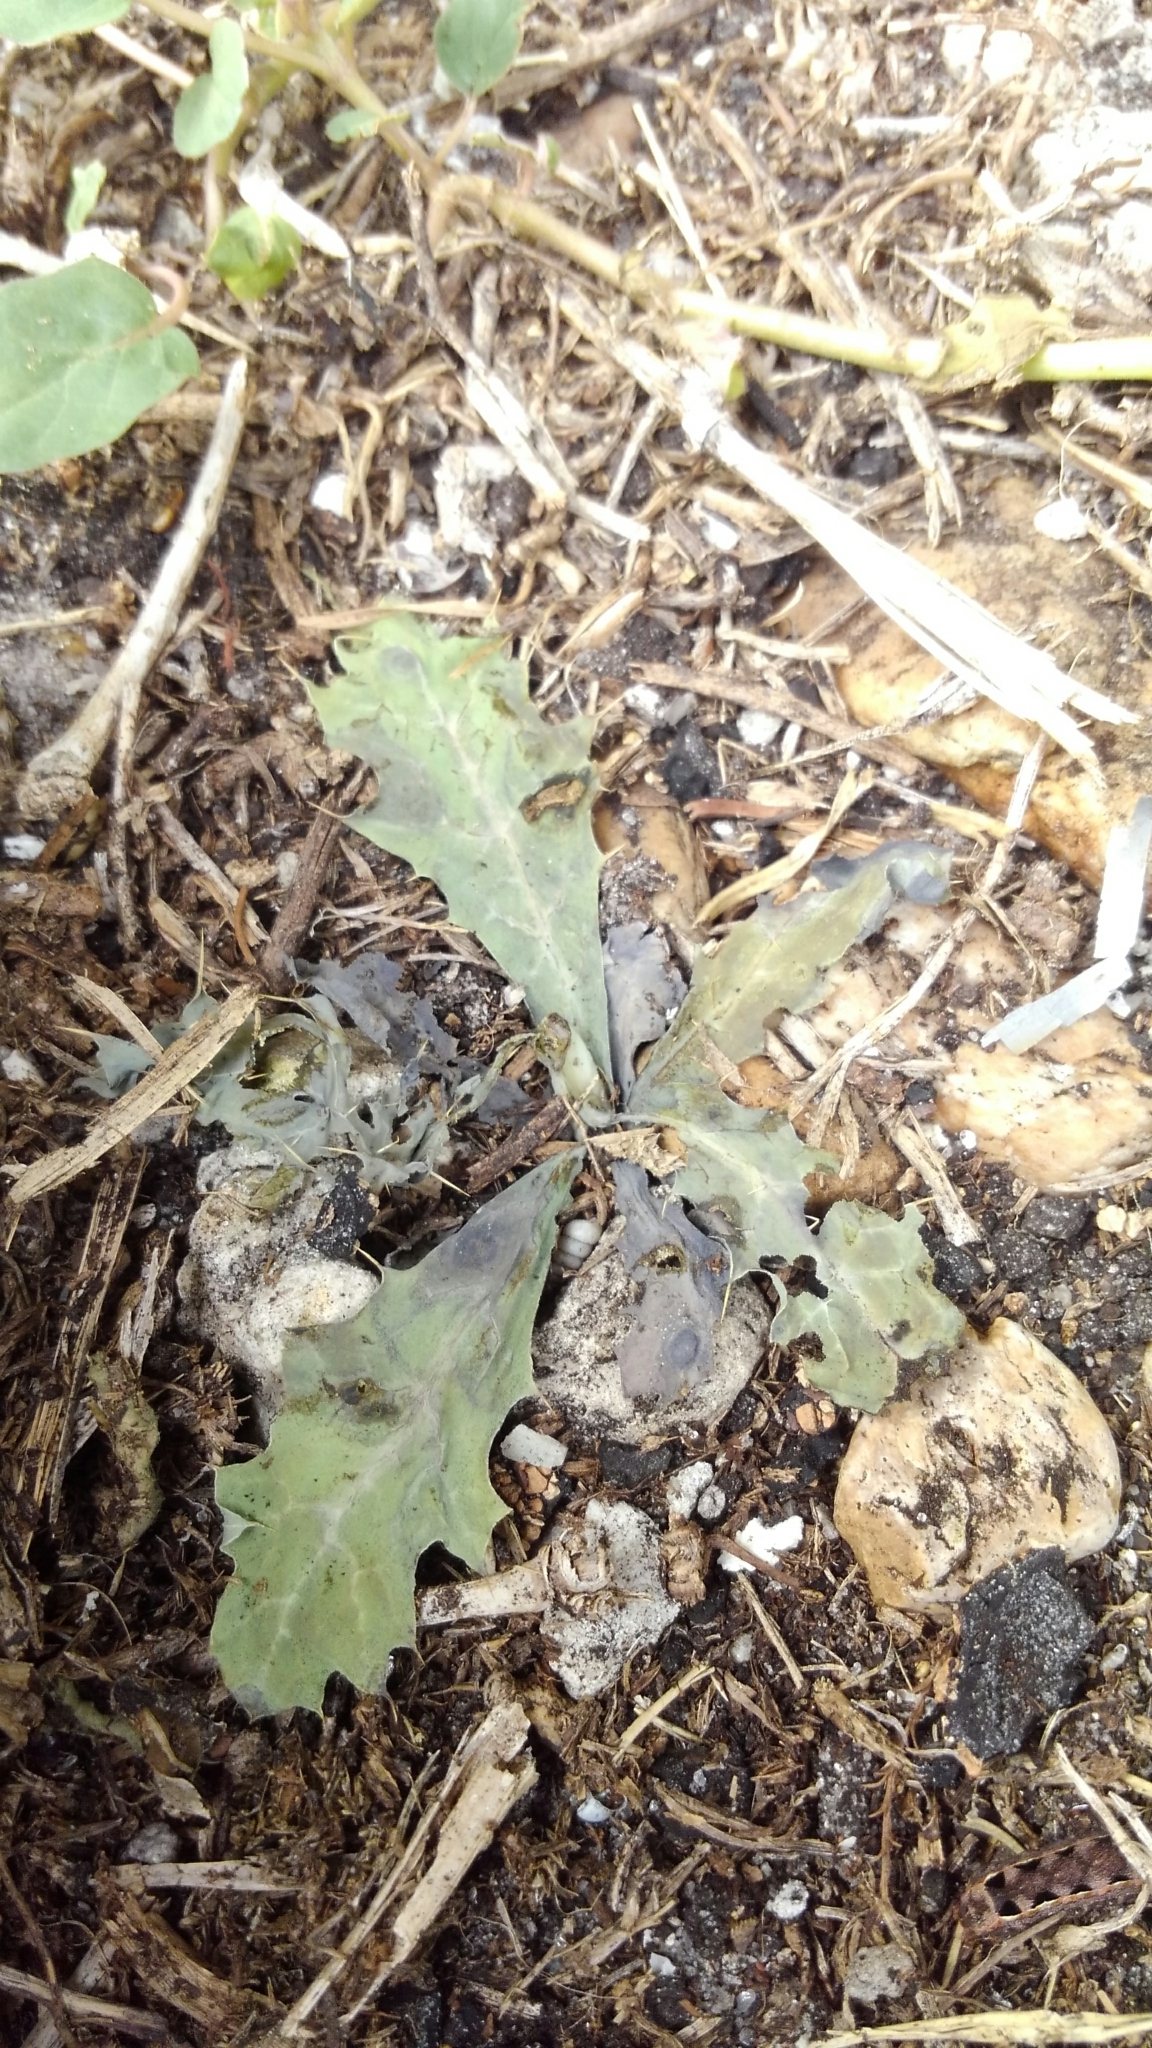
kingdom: Plantae
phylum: Tracheophyta
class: Magnoliopsida
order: Ranunculales
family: Papaveraceae
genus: Argemone
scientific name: Argemone mexicana
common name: Mexican poppy
